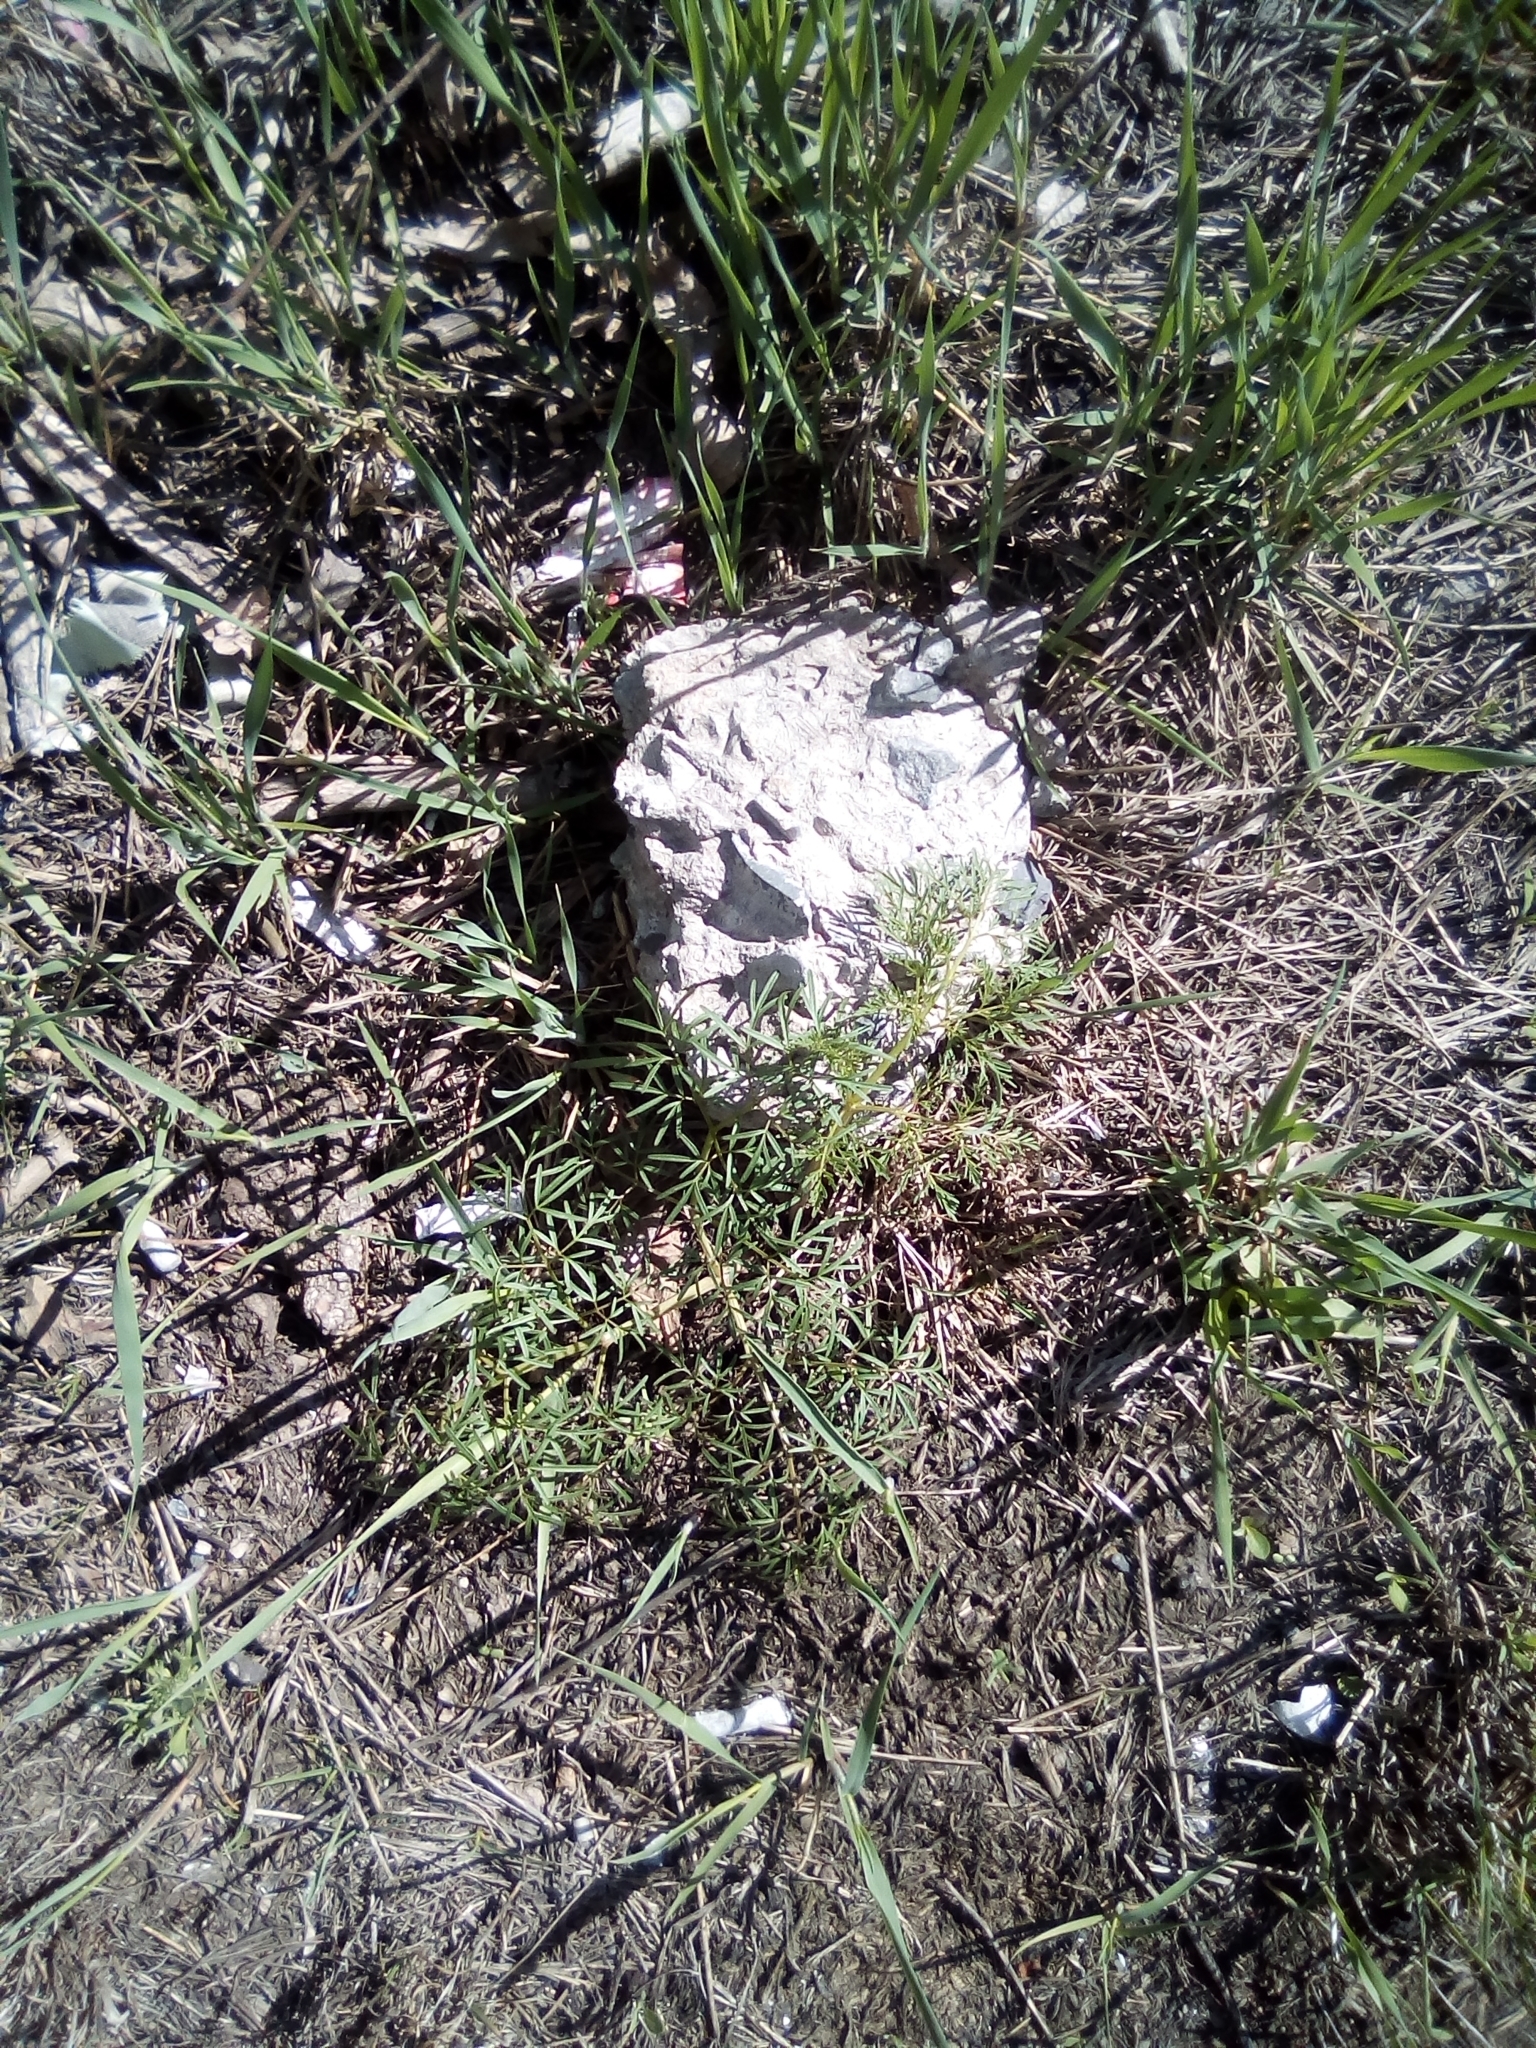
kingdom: Plantae
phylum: Tracheophyta
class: Magnoliopsida
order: Apiales
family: Apiaceae
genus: Elwendia
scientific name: Elwendia setacea
